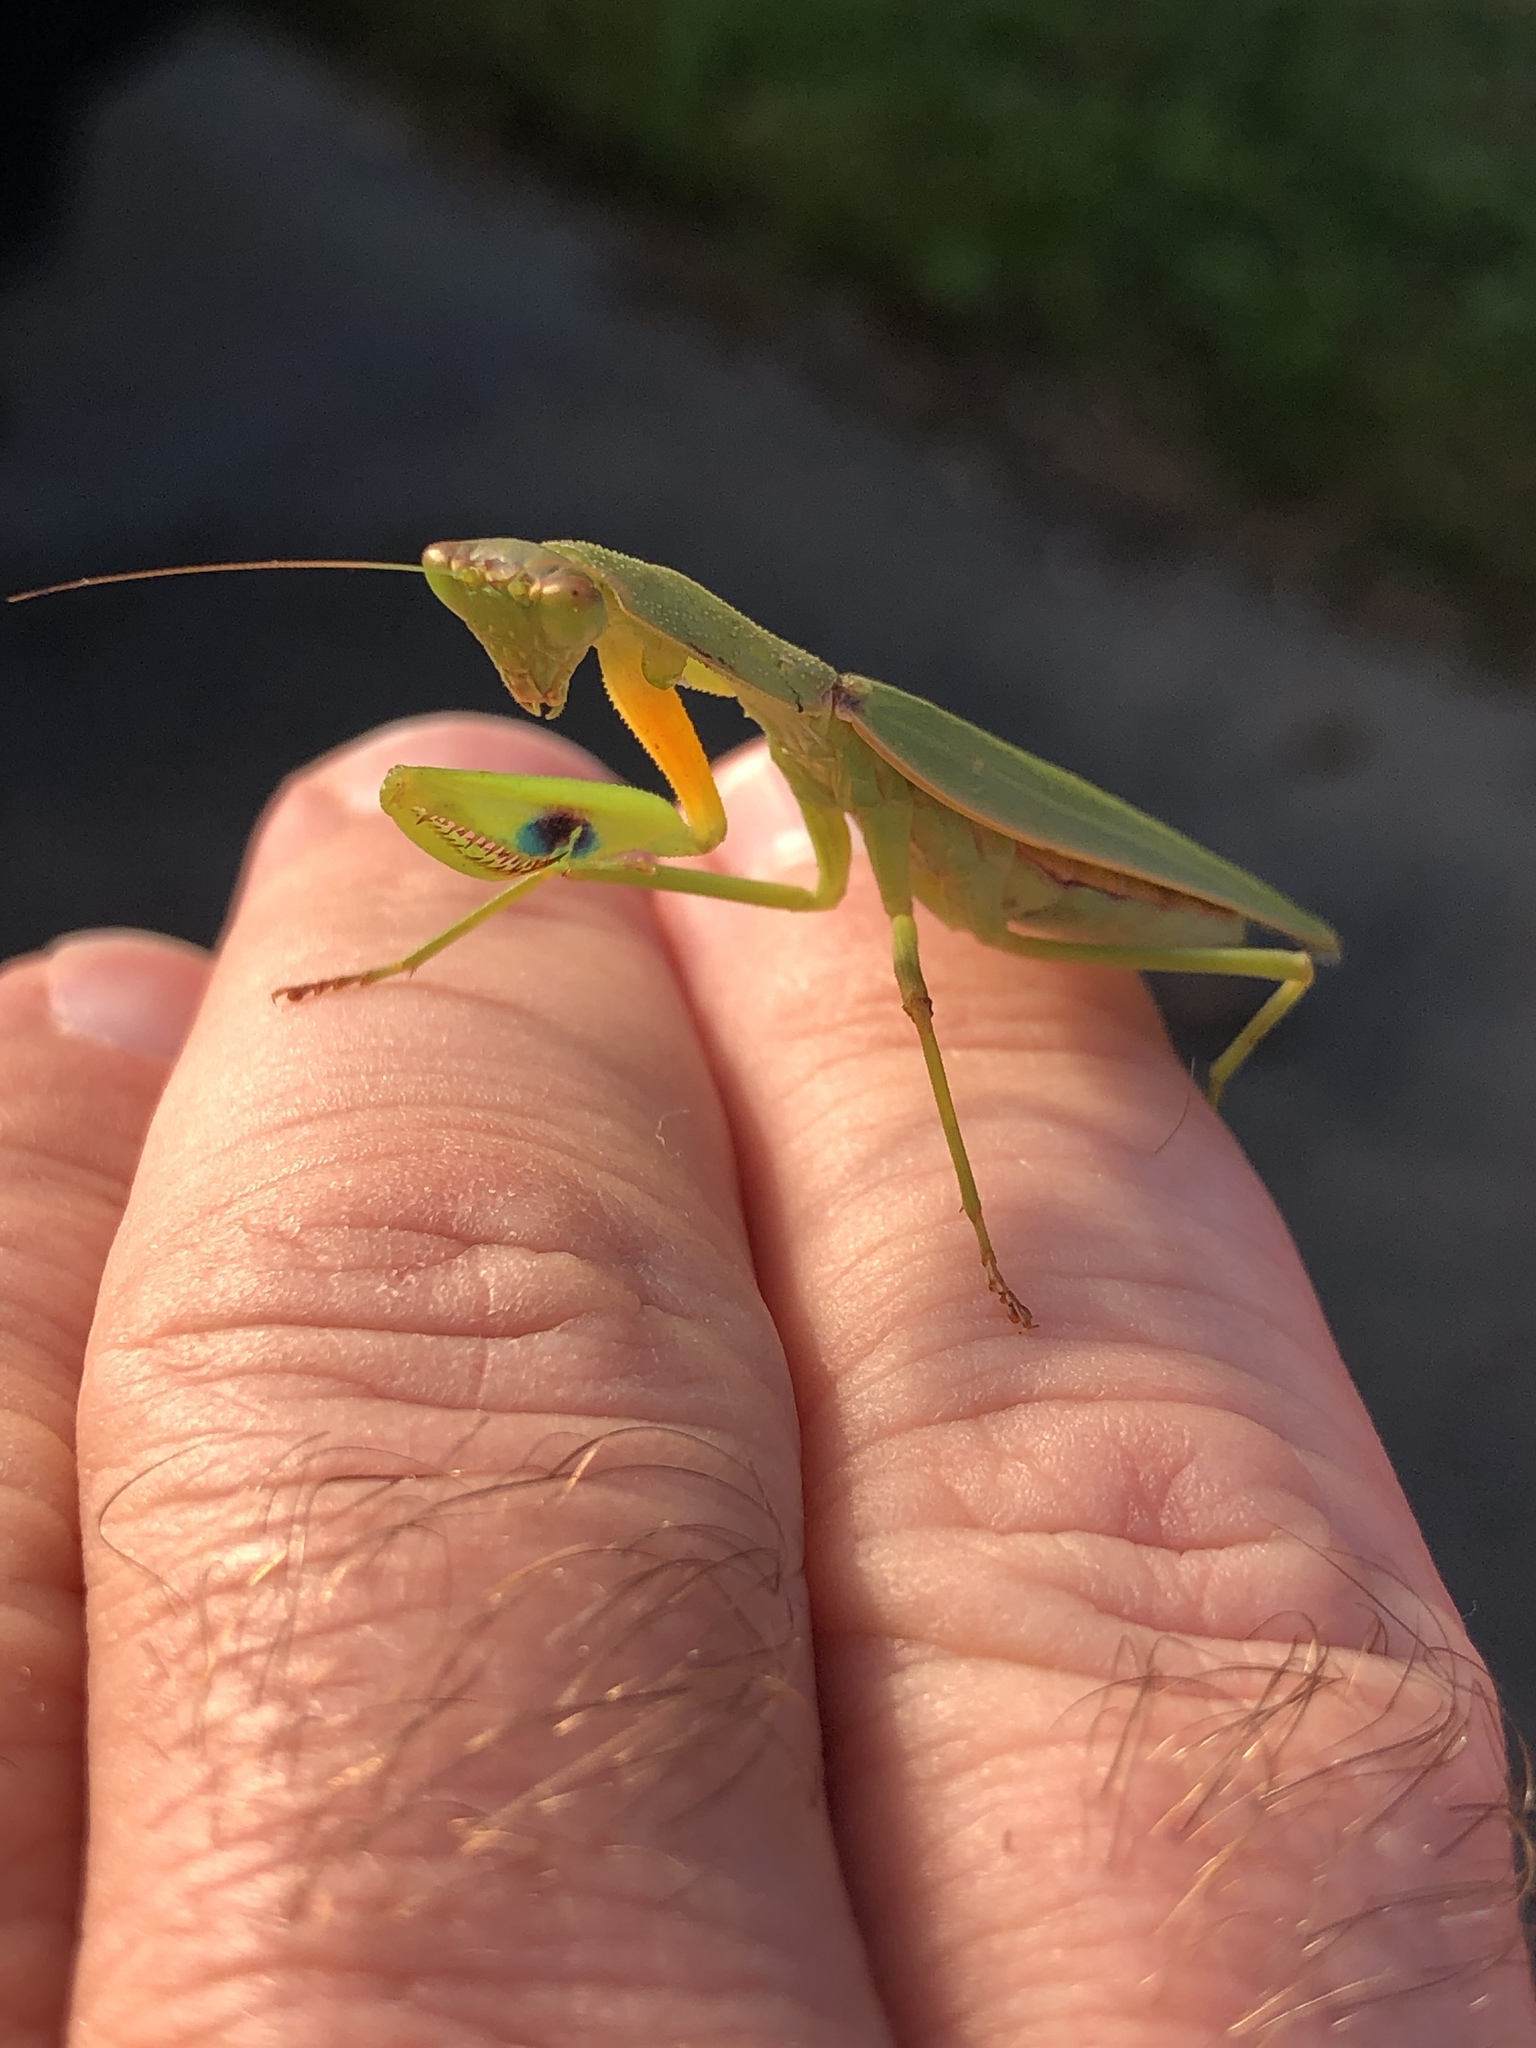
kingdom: Animalia
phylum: Arthropoda
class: Insecta
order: Mantodea
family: Mantidae
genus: Orthodera
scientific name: Orthodera novaezealandiae
